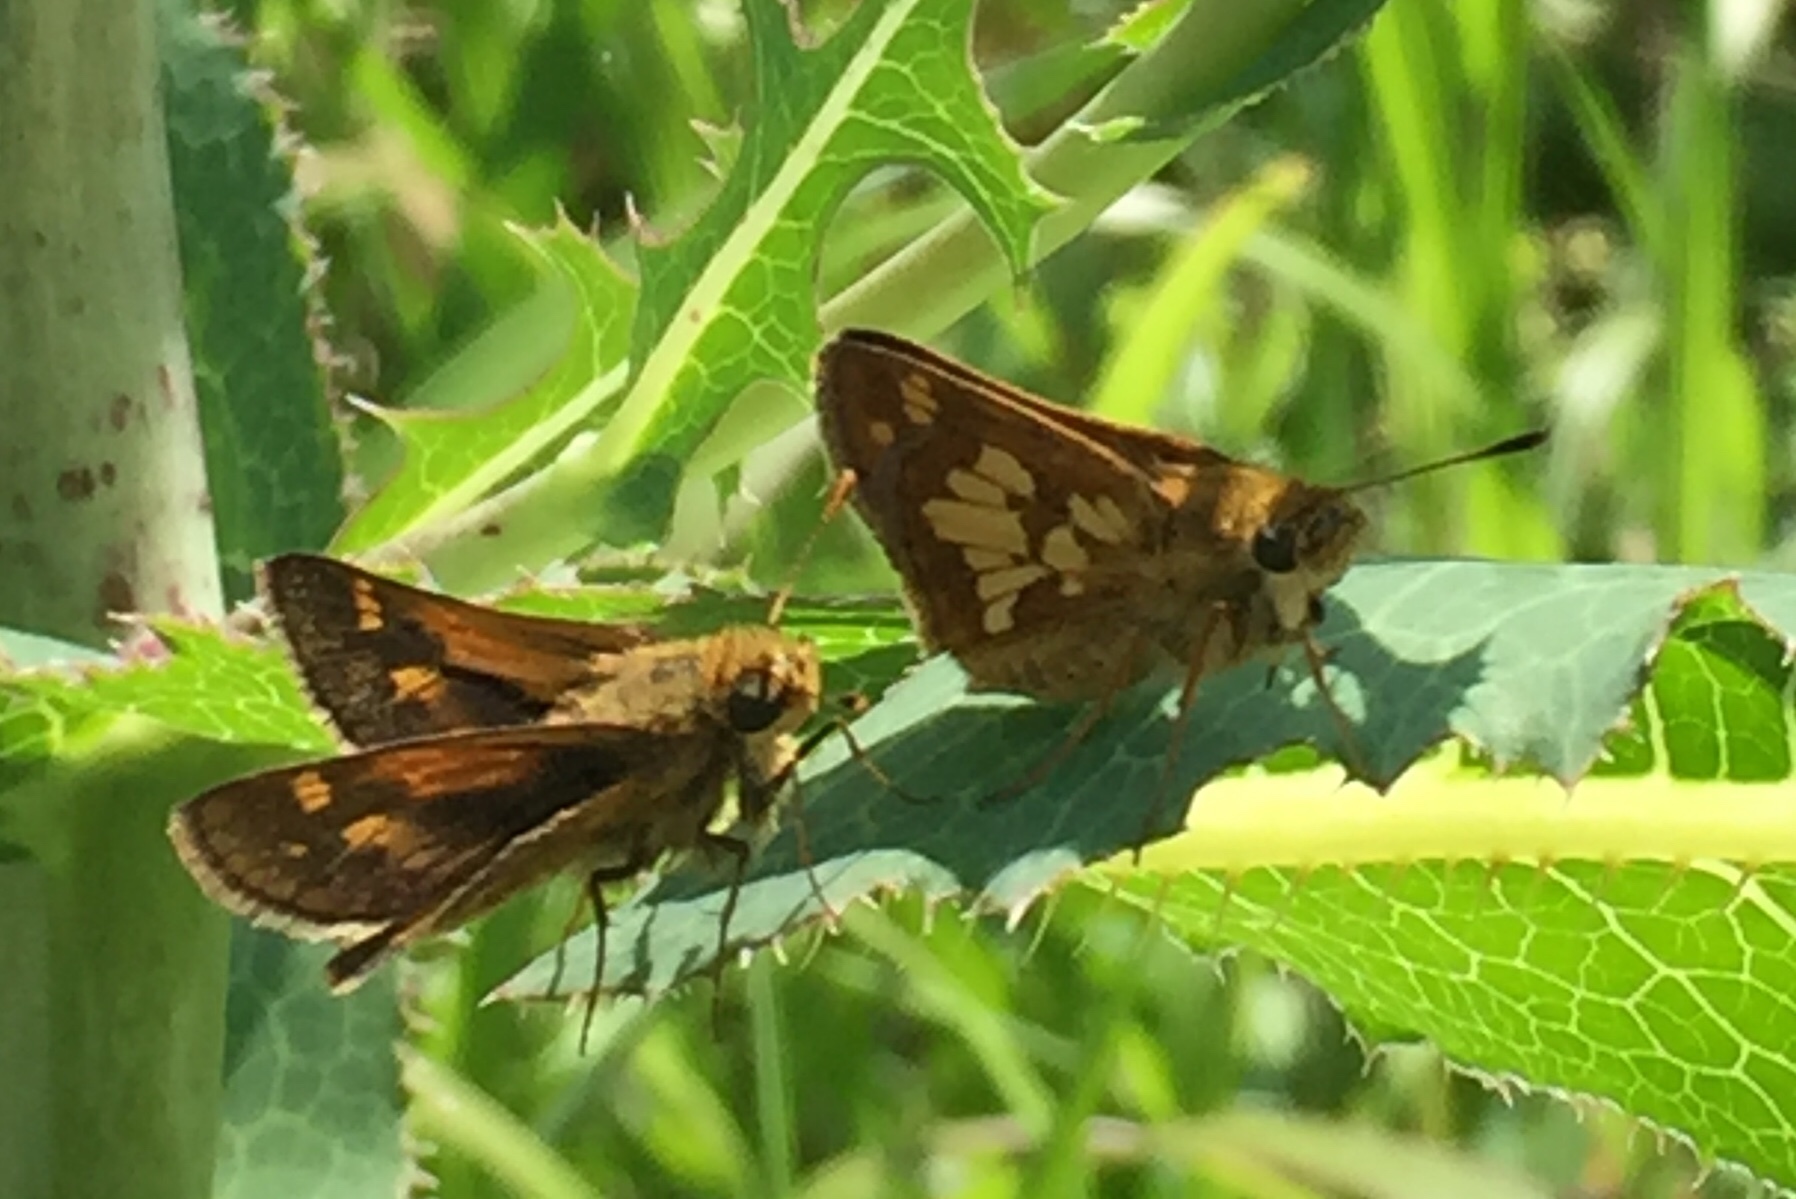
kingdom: Animalia
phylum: Arthropoda
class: Insecta
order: Lepidoptera
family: Hesperiidae
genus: Polites
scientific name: Polites coras
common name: Peck's skipper
